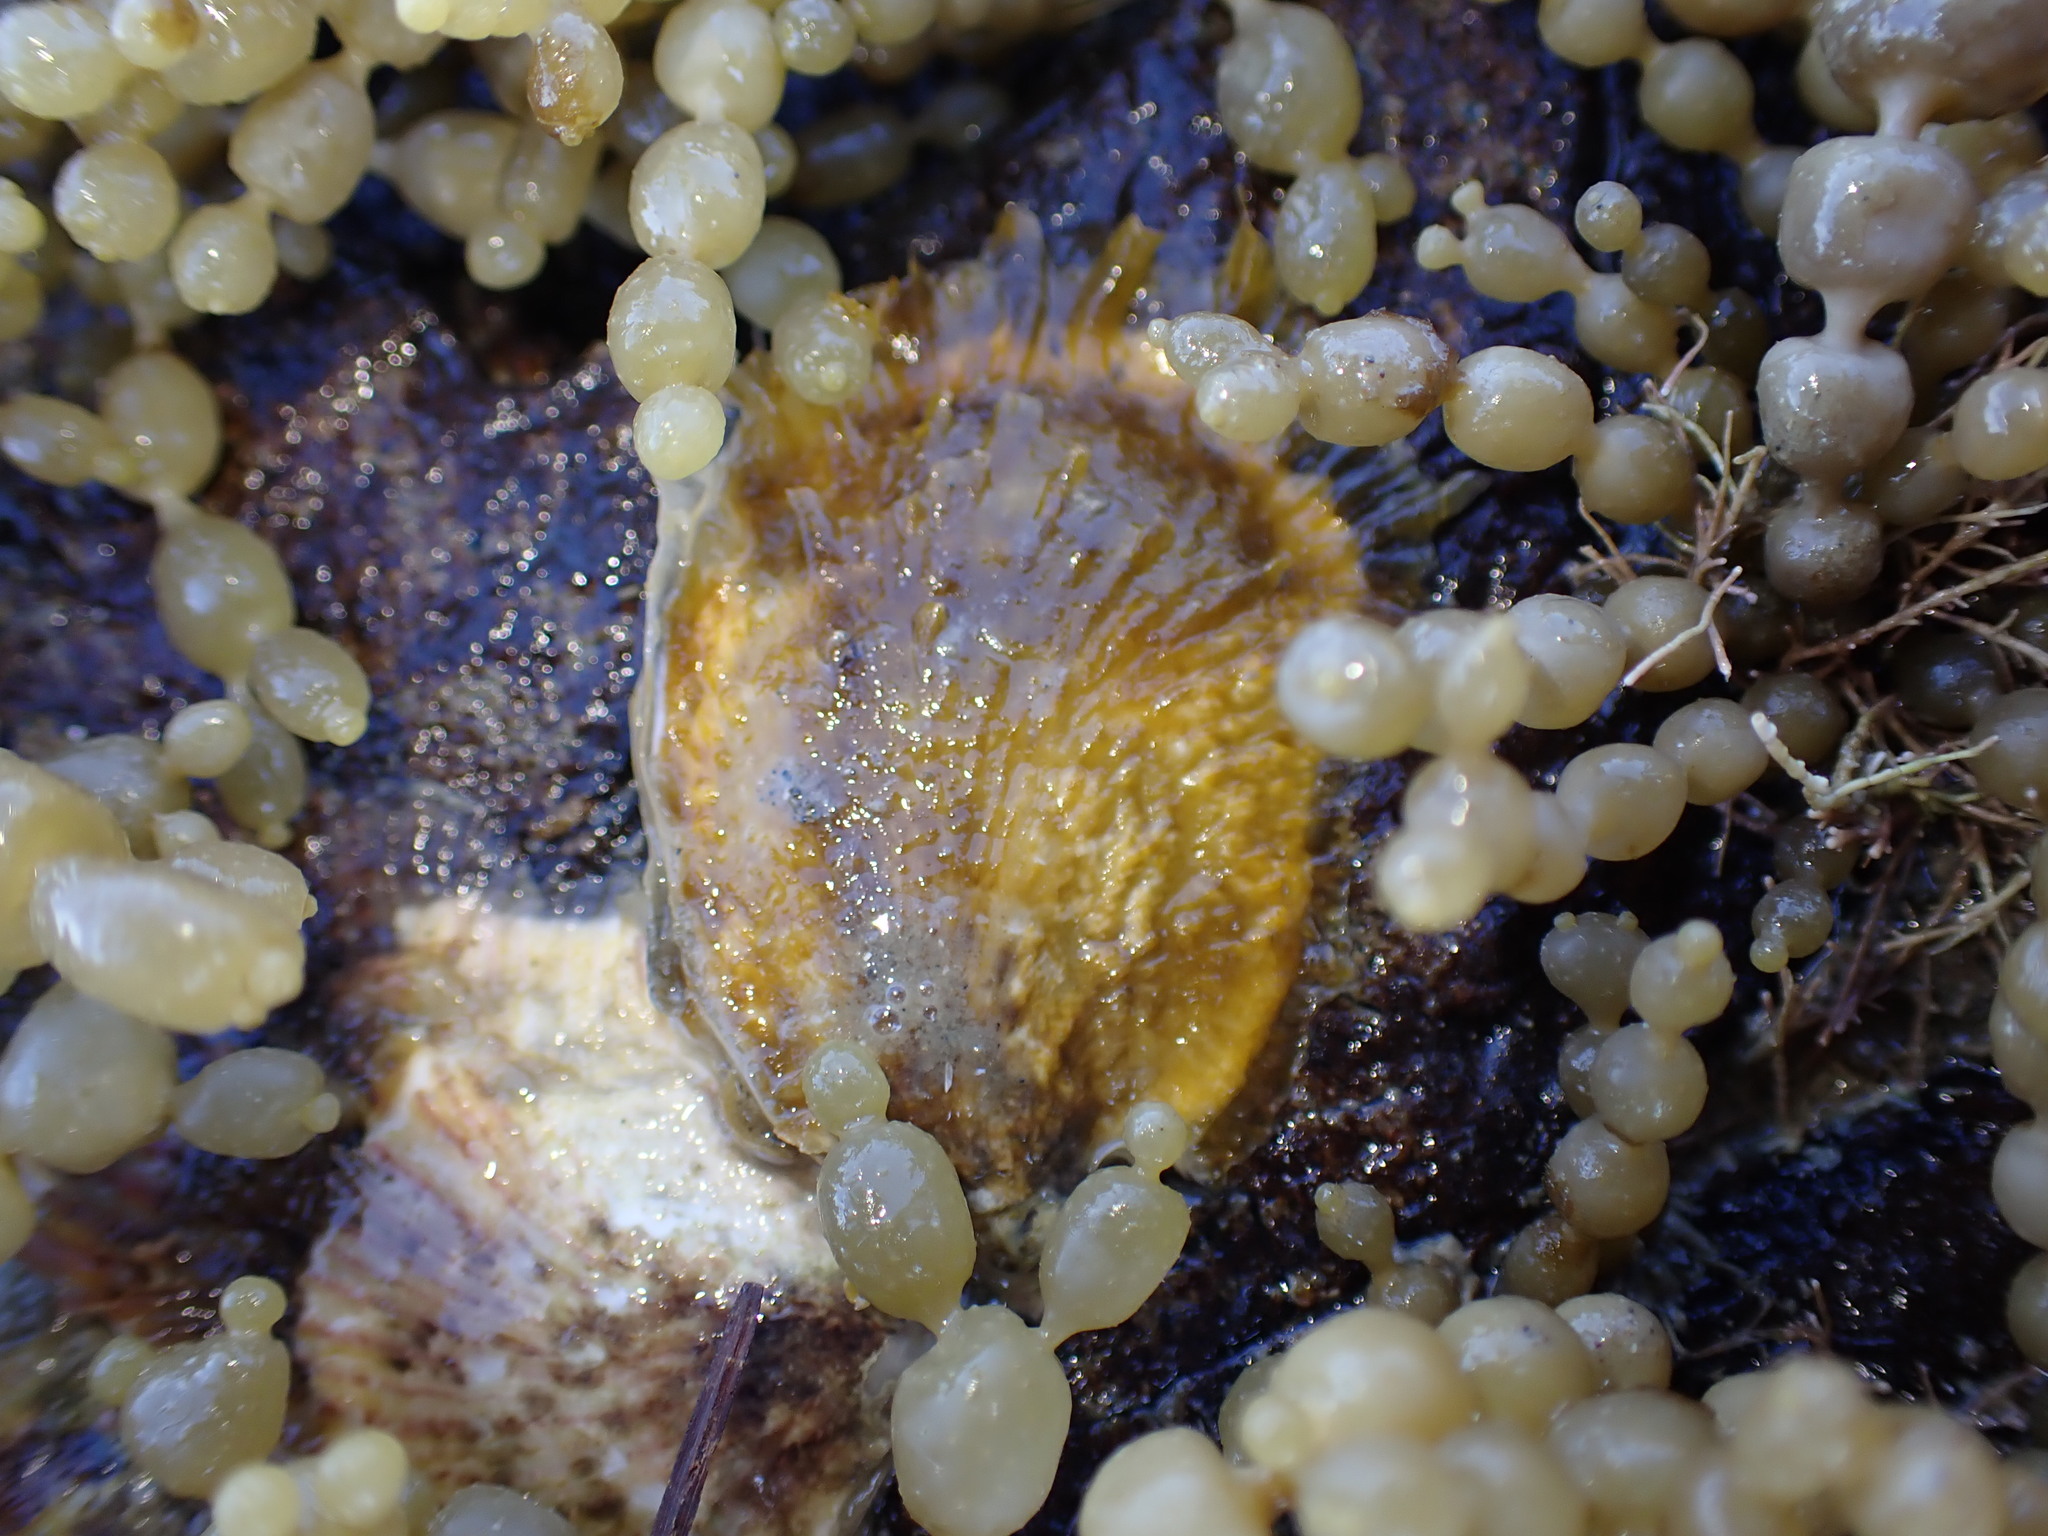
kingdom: Animalia
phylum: Mollusca
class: Bivalvia
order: Ostreida
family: Ostreidae
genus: Magallana
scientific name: Magallana gigas
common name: Pacific oyster
